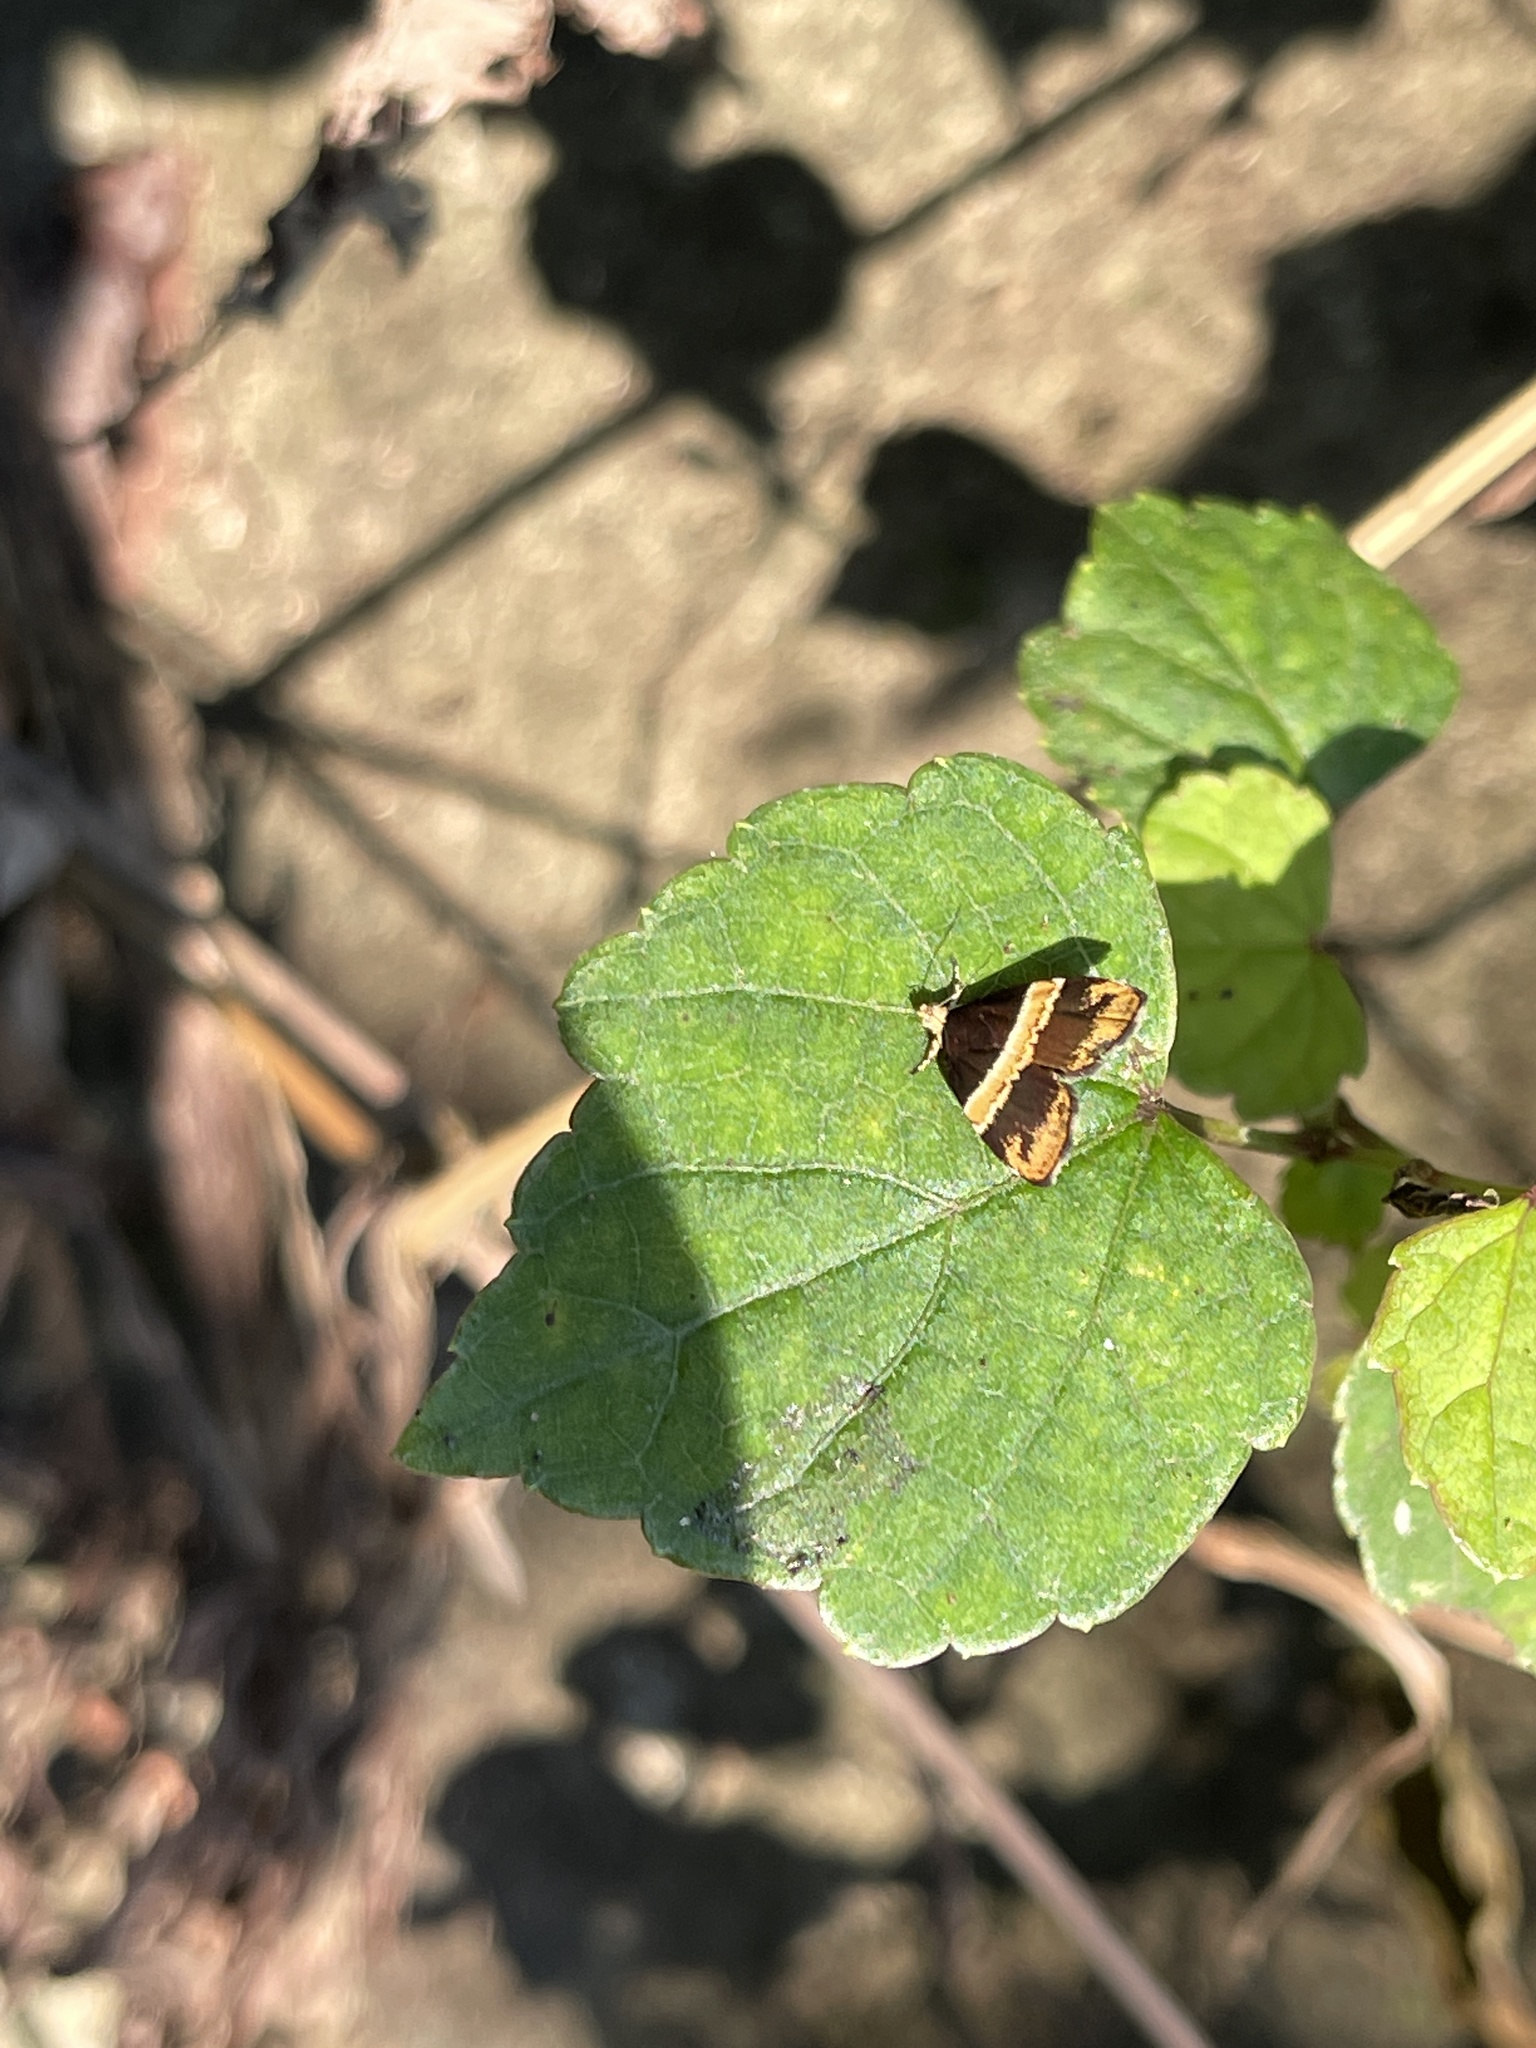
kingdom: Animalia
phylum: Arthropoda
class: Insecta
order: Lepidoptera
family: Choreutidae
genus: Choreutis
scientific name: Choreutis basalis
